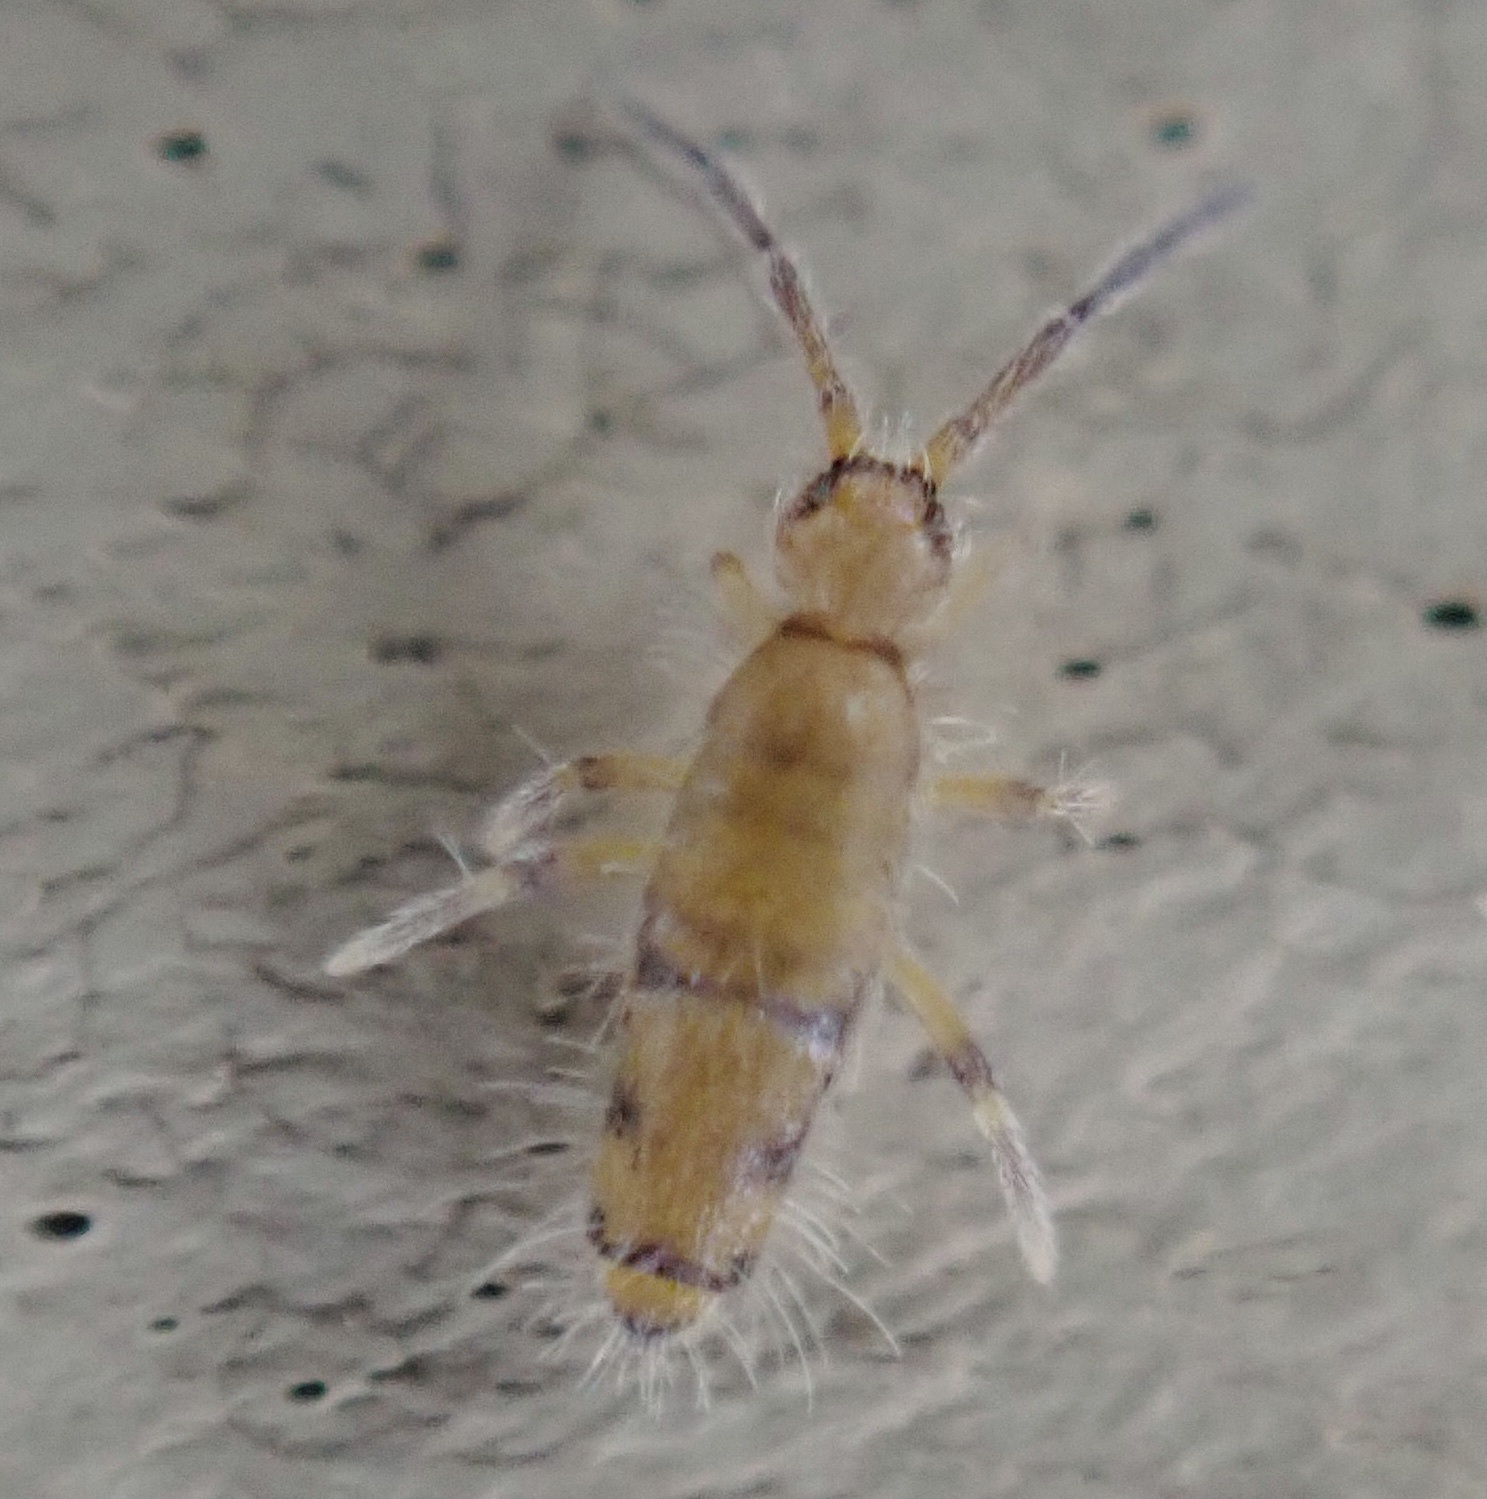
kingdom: Animalia
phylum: Arthropoda
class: Collembola
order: Entomobryomorpha
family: Entomobryidae
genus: Willowsia
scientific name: Willowsia nigromaculata
